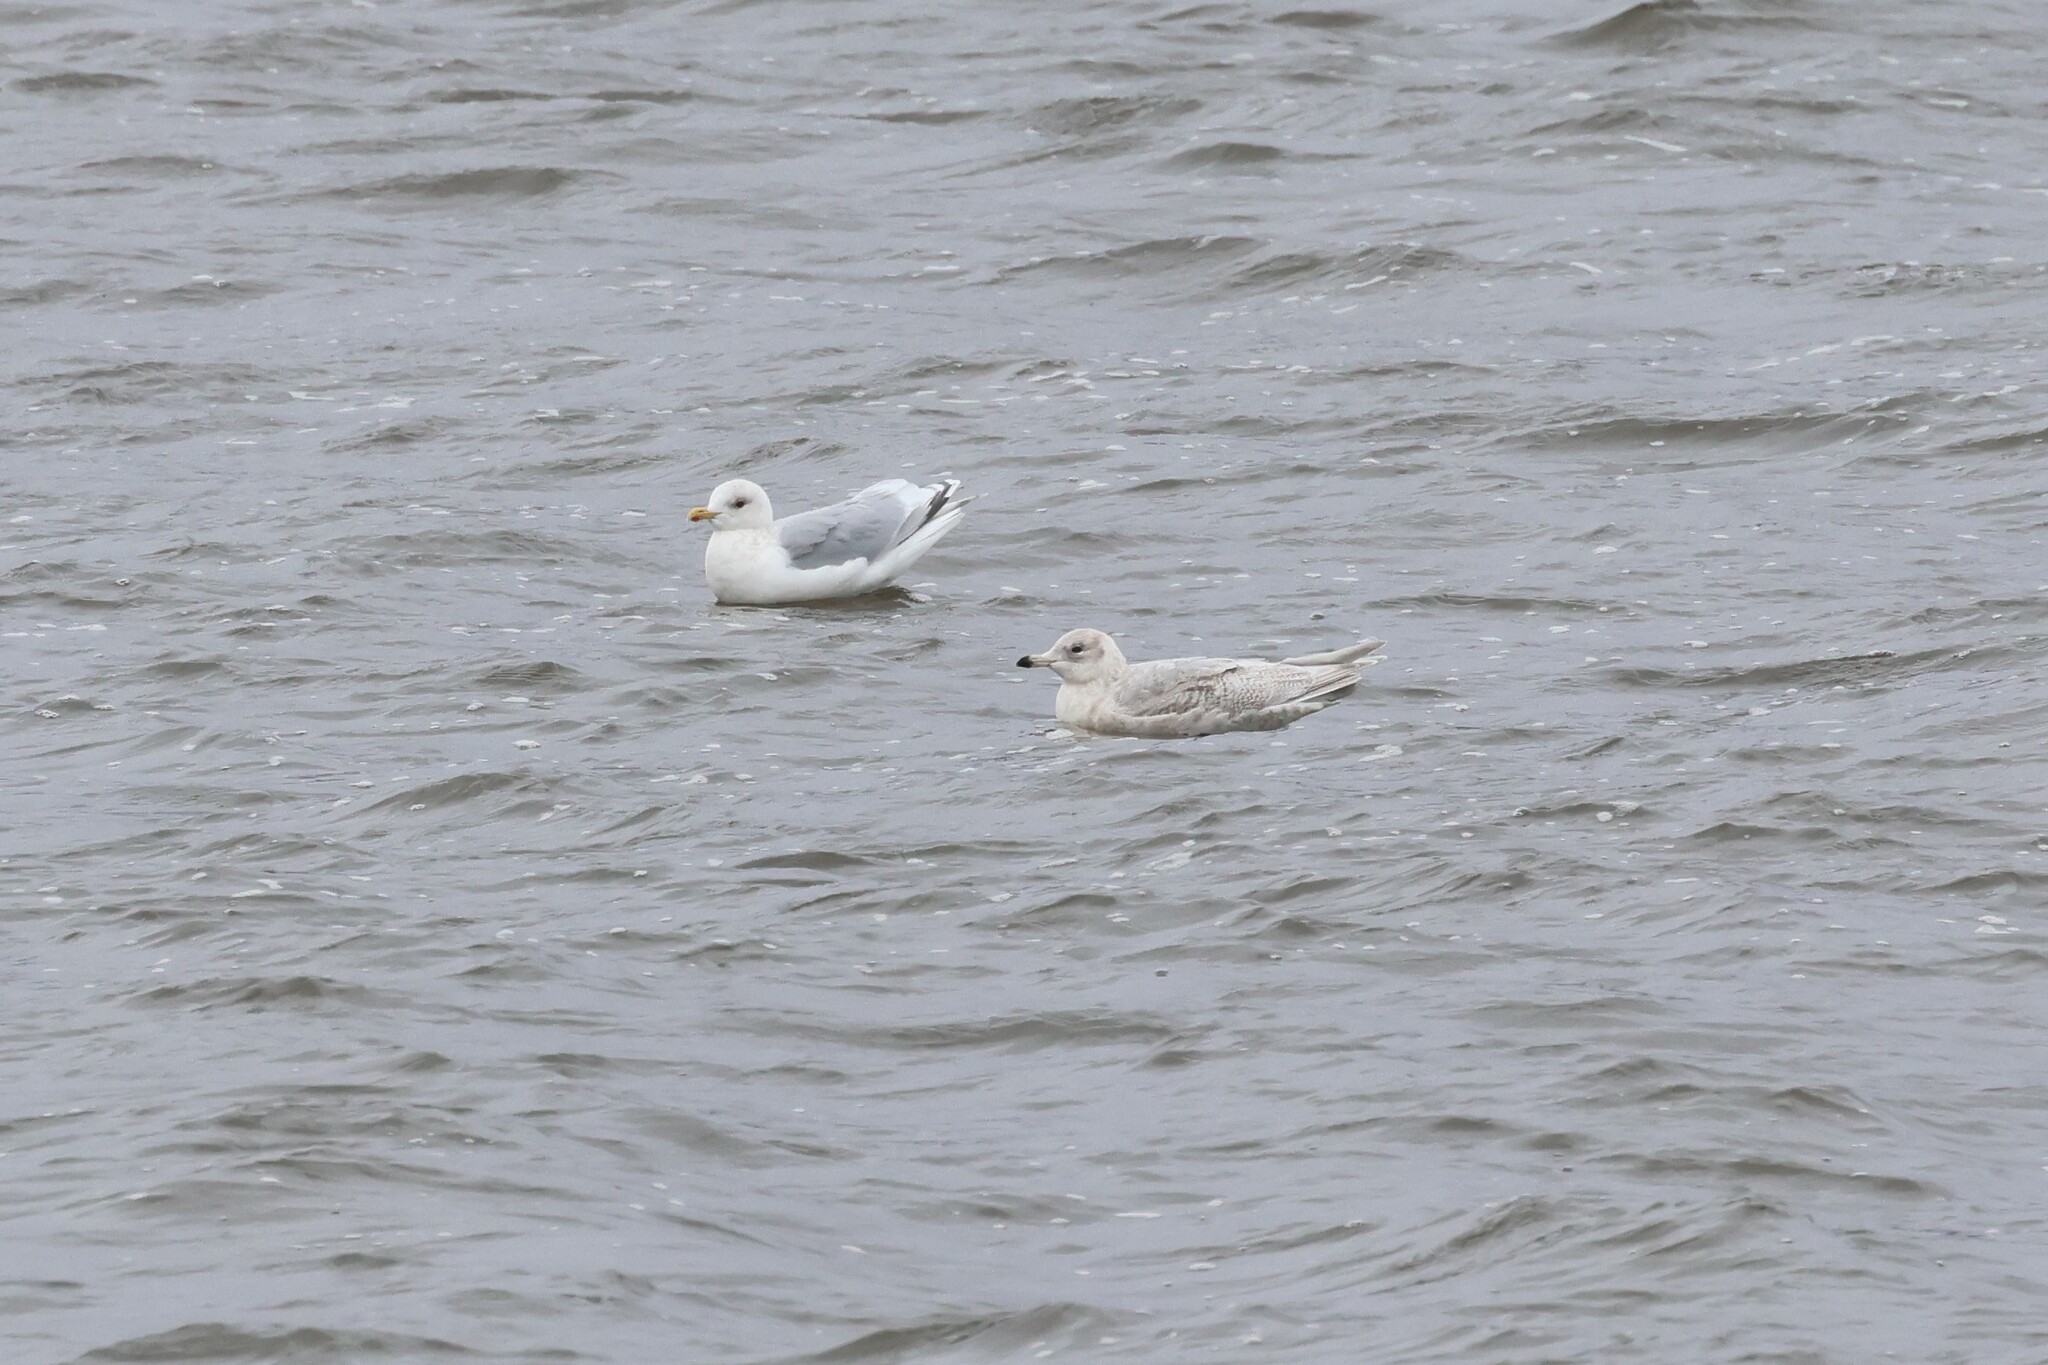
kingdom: Animalia
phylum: Chordata
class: Aves
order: Charadriiformes
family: Laridae
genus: Larus
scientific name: Larus glaucoides
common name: Iceland gull
